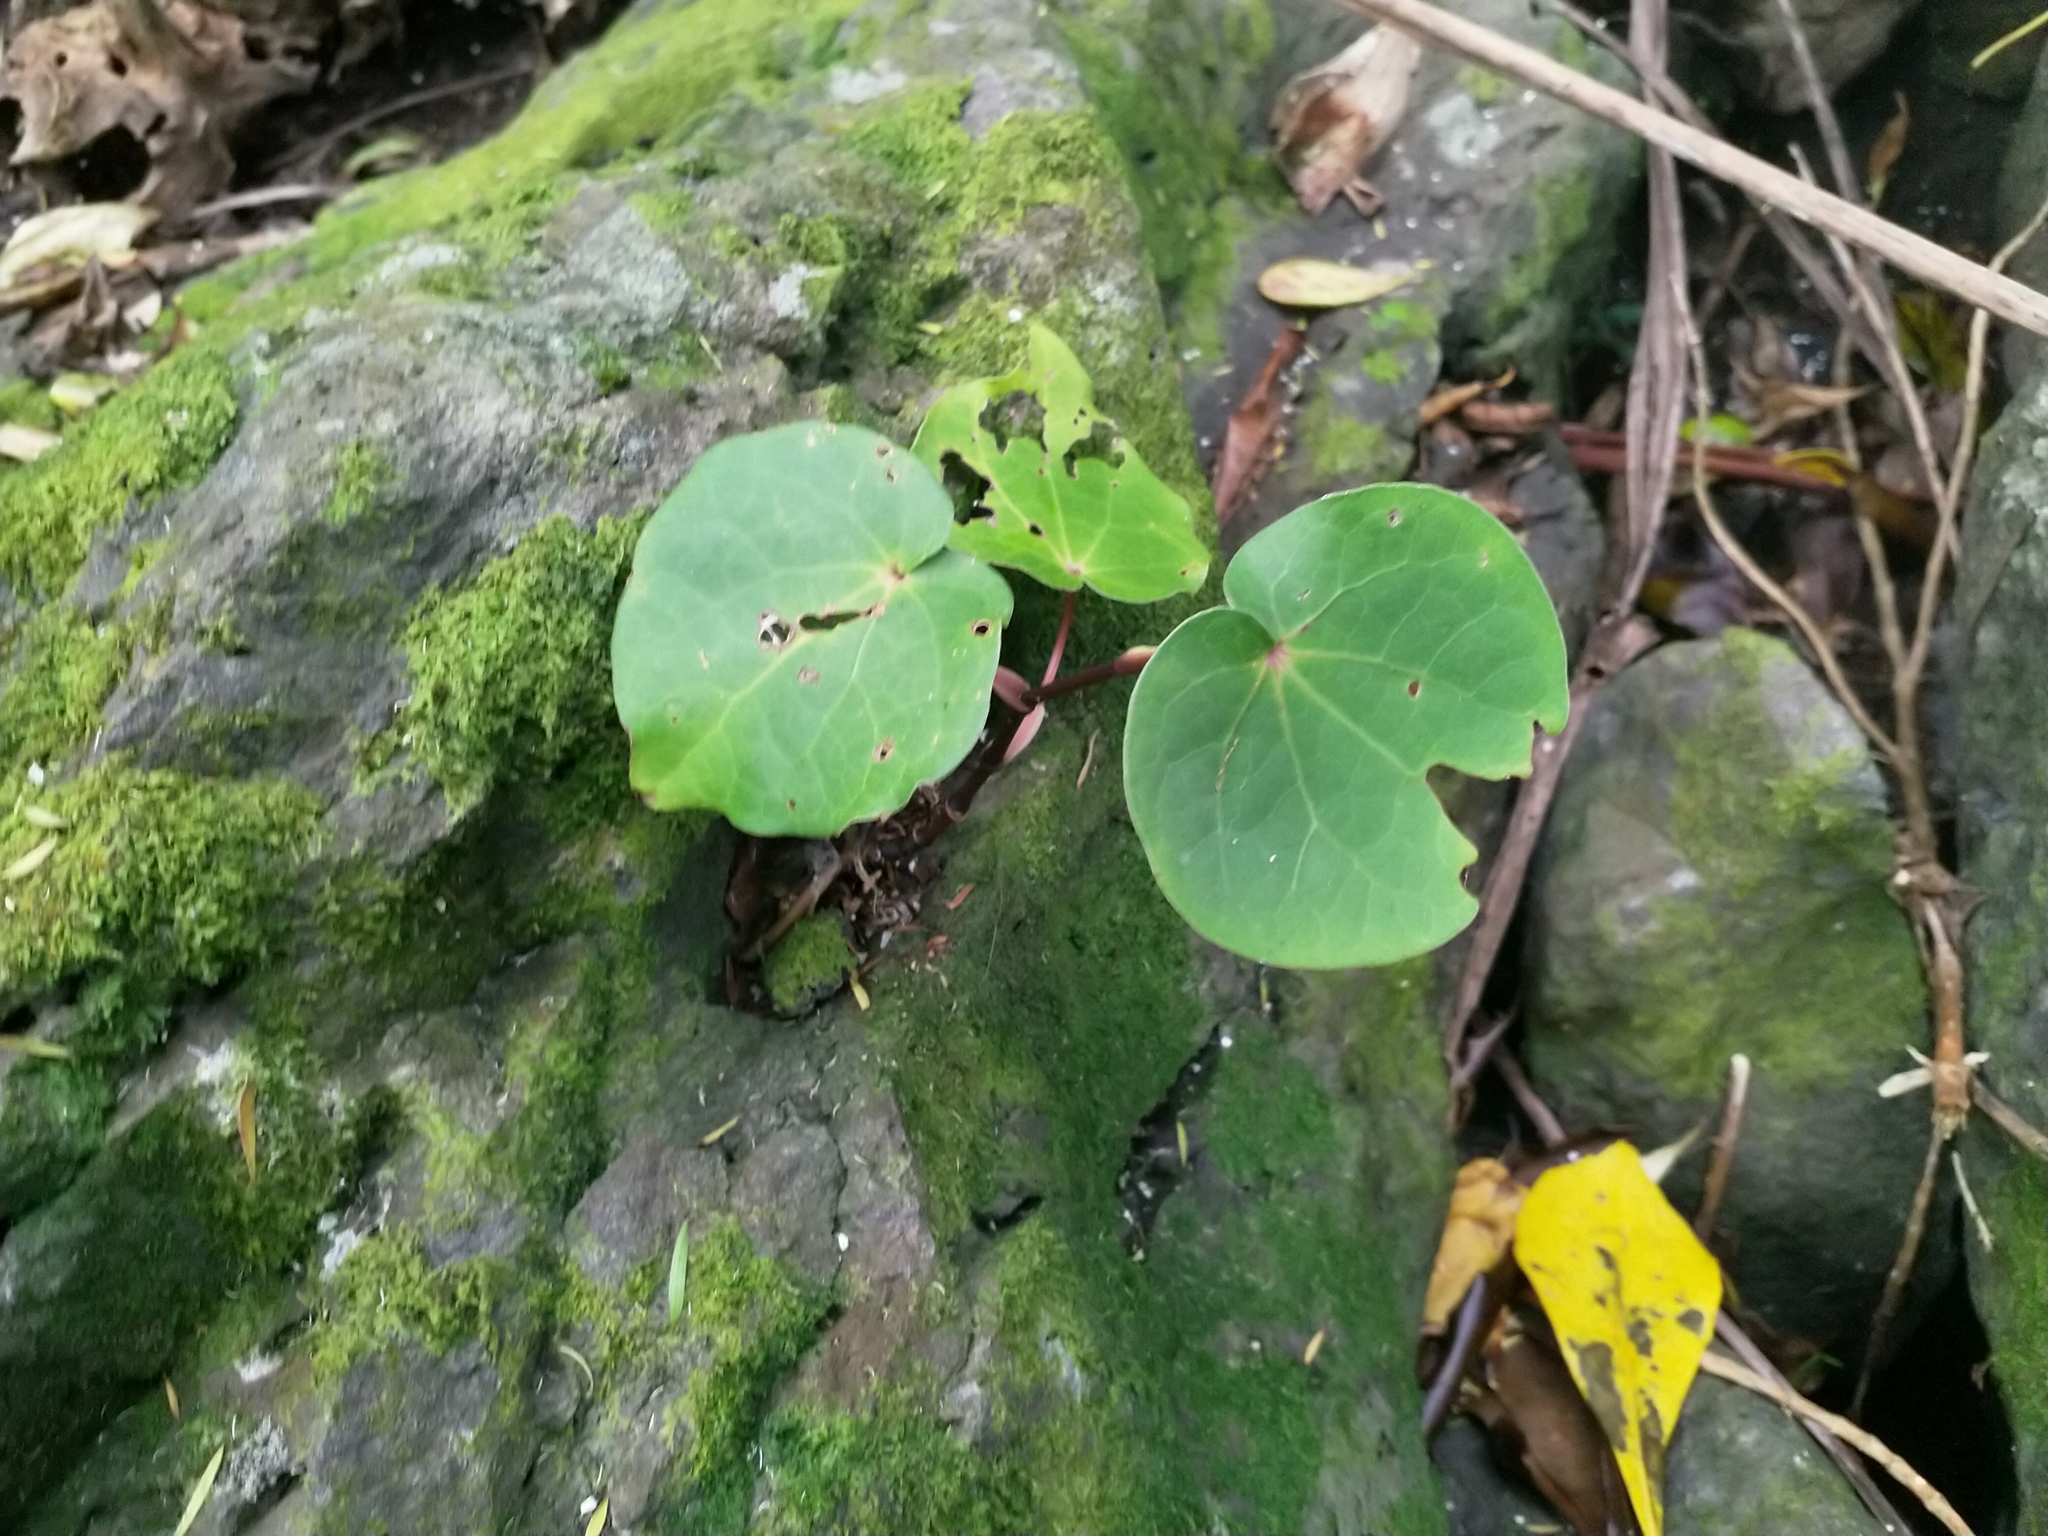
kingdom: Plantae
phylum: Tracheophyta
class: Magnoliopsida
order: Piperales
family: Piperaceae
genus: Macropiper
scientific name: Macropiper excelsum
